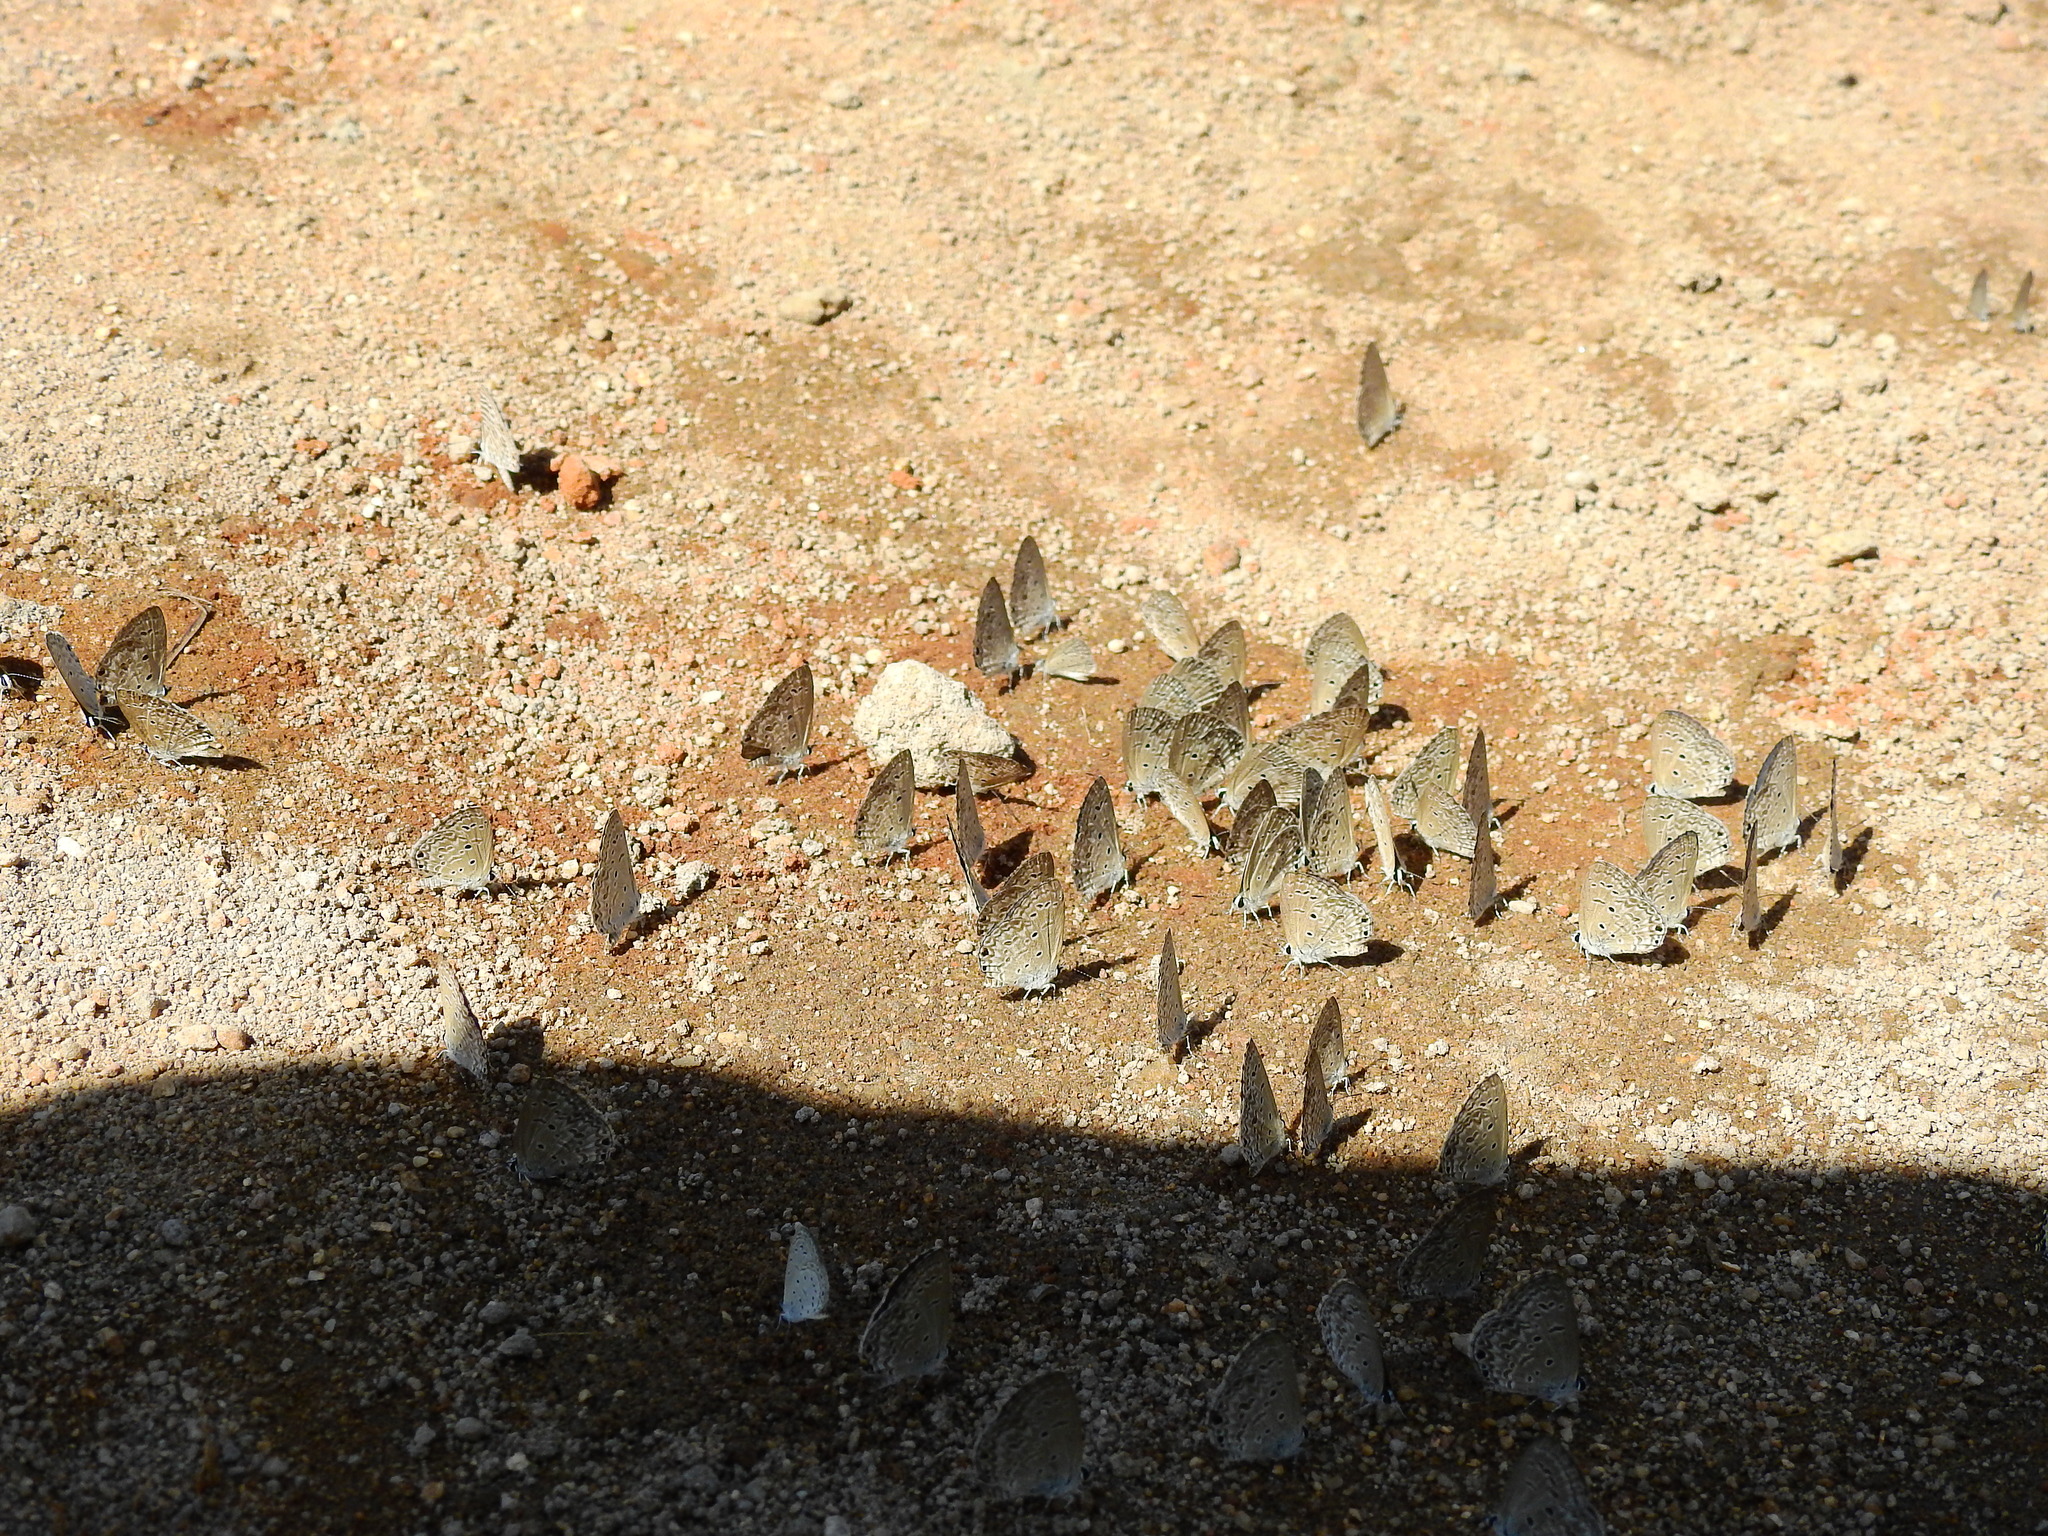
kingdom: Animalia
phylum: Arthropoda
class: Insecta
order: Lepidoptera
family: Lycaenidae
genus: Chilades
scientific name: Chilades laius
